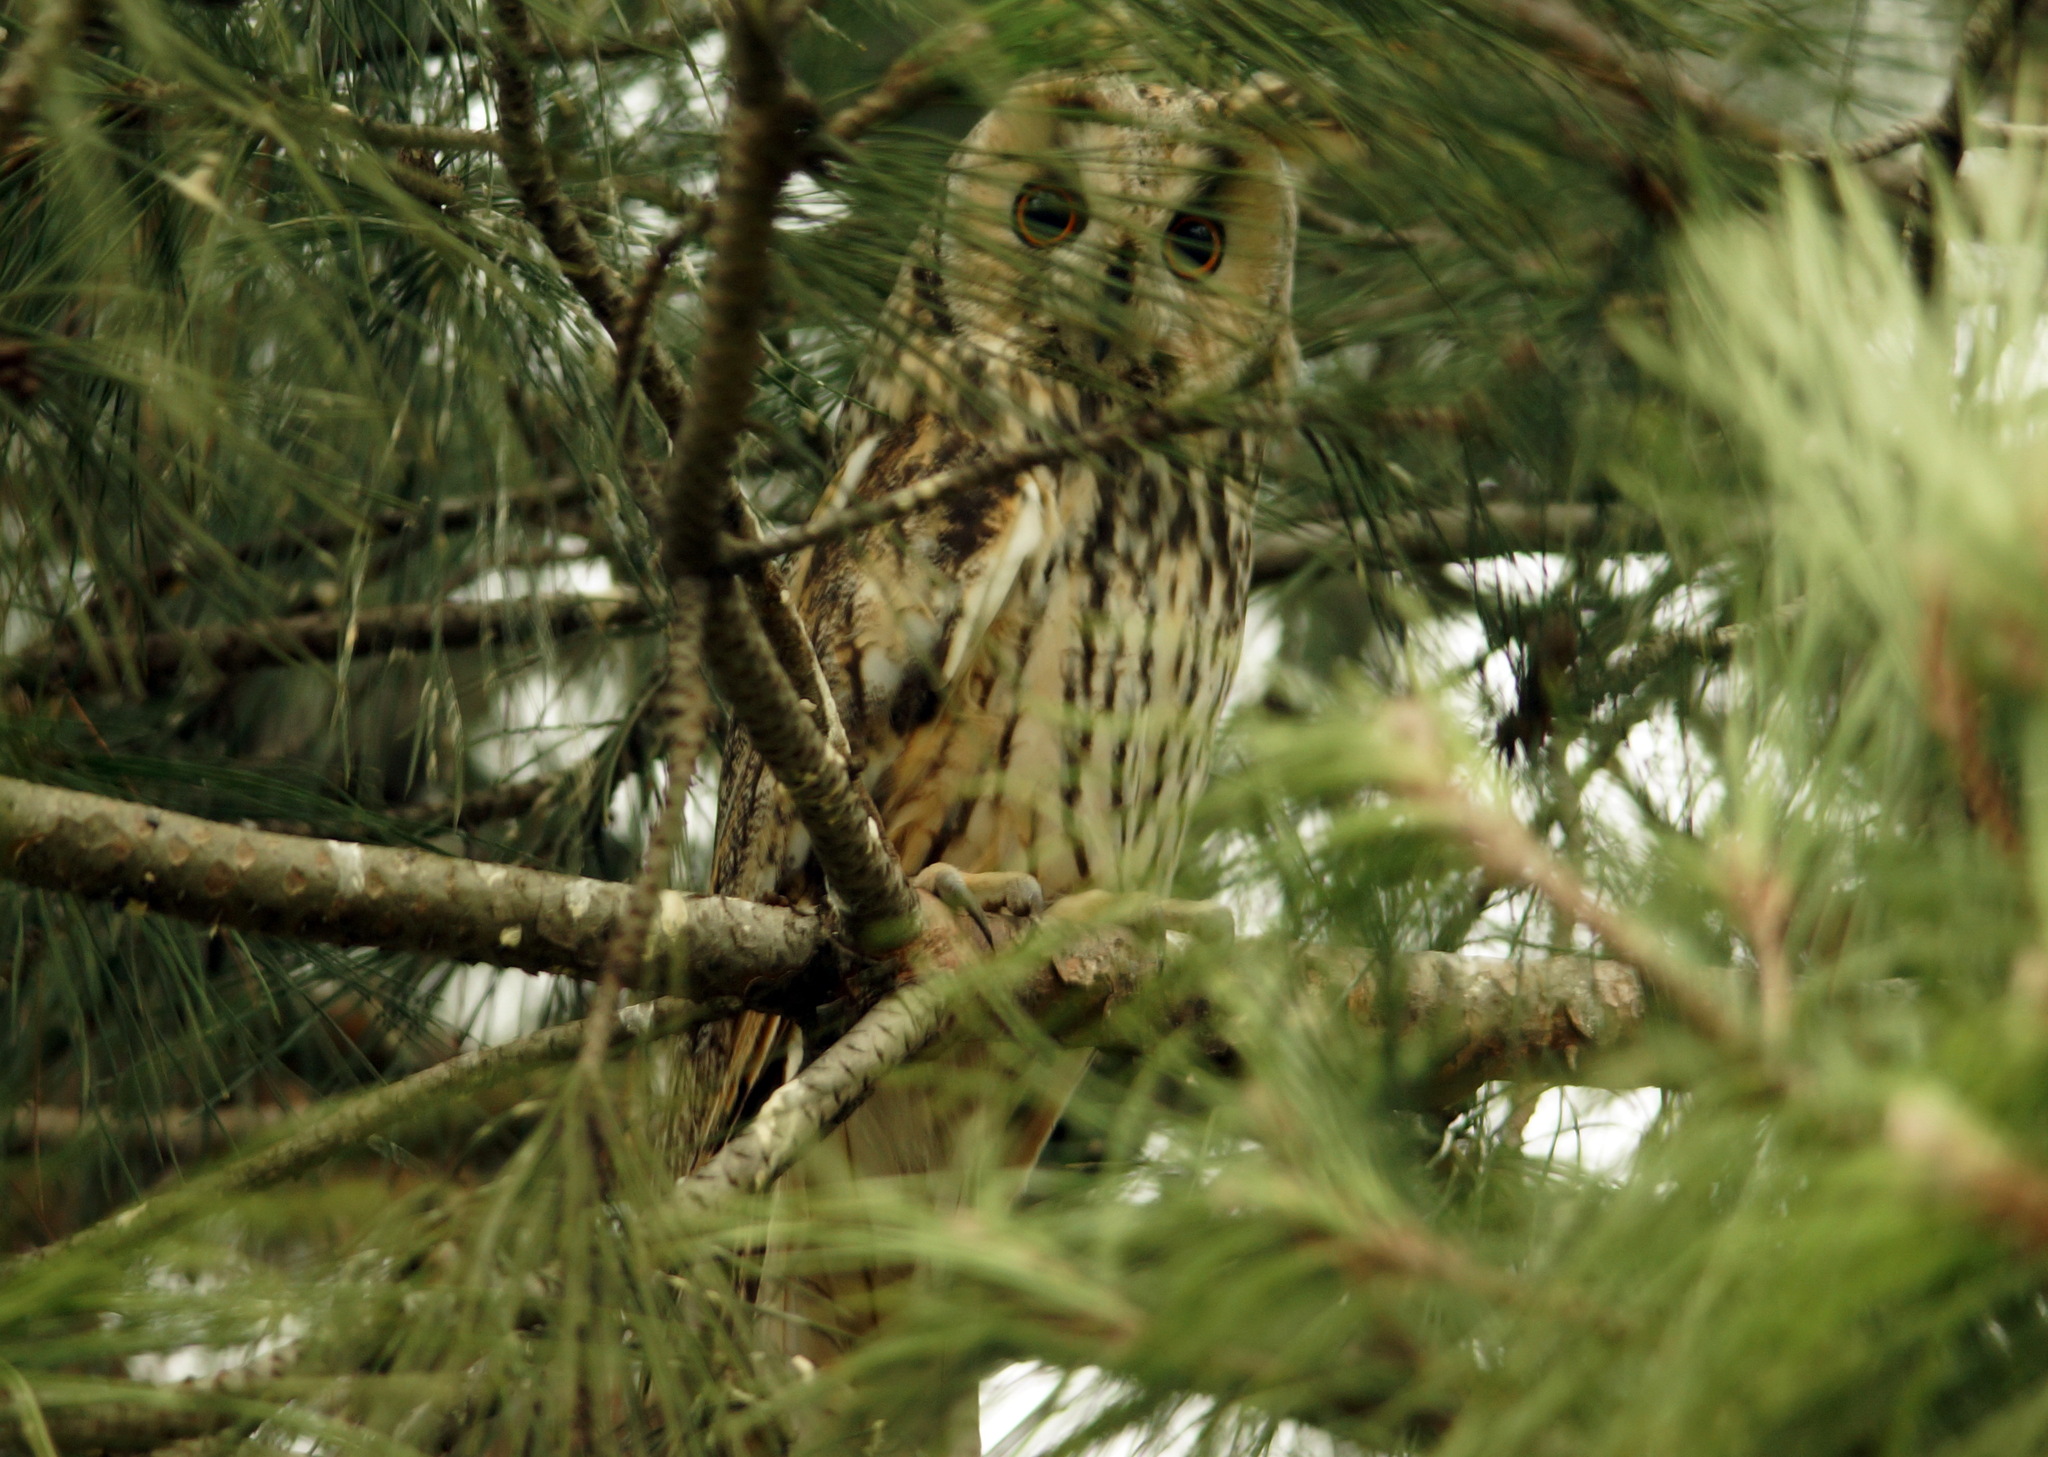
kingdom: Animalia
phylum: Chordata
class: Aves
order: Strigiformes
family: Strigidae
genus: Asio
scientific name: Asio otus
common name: Long-eared owl
